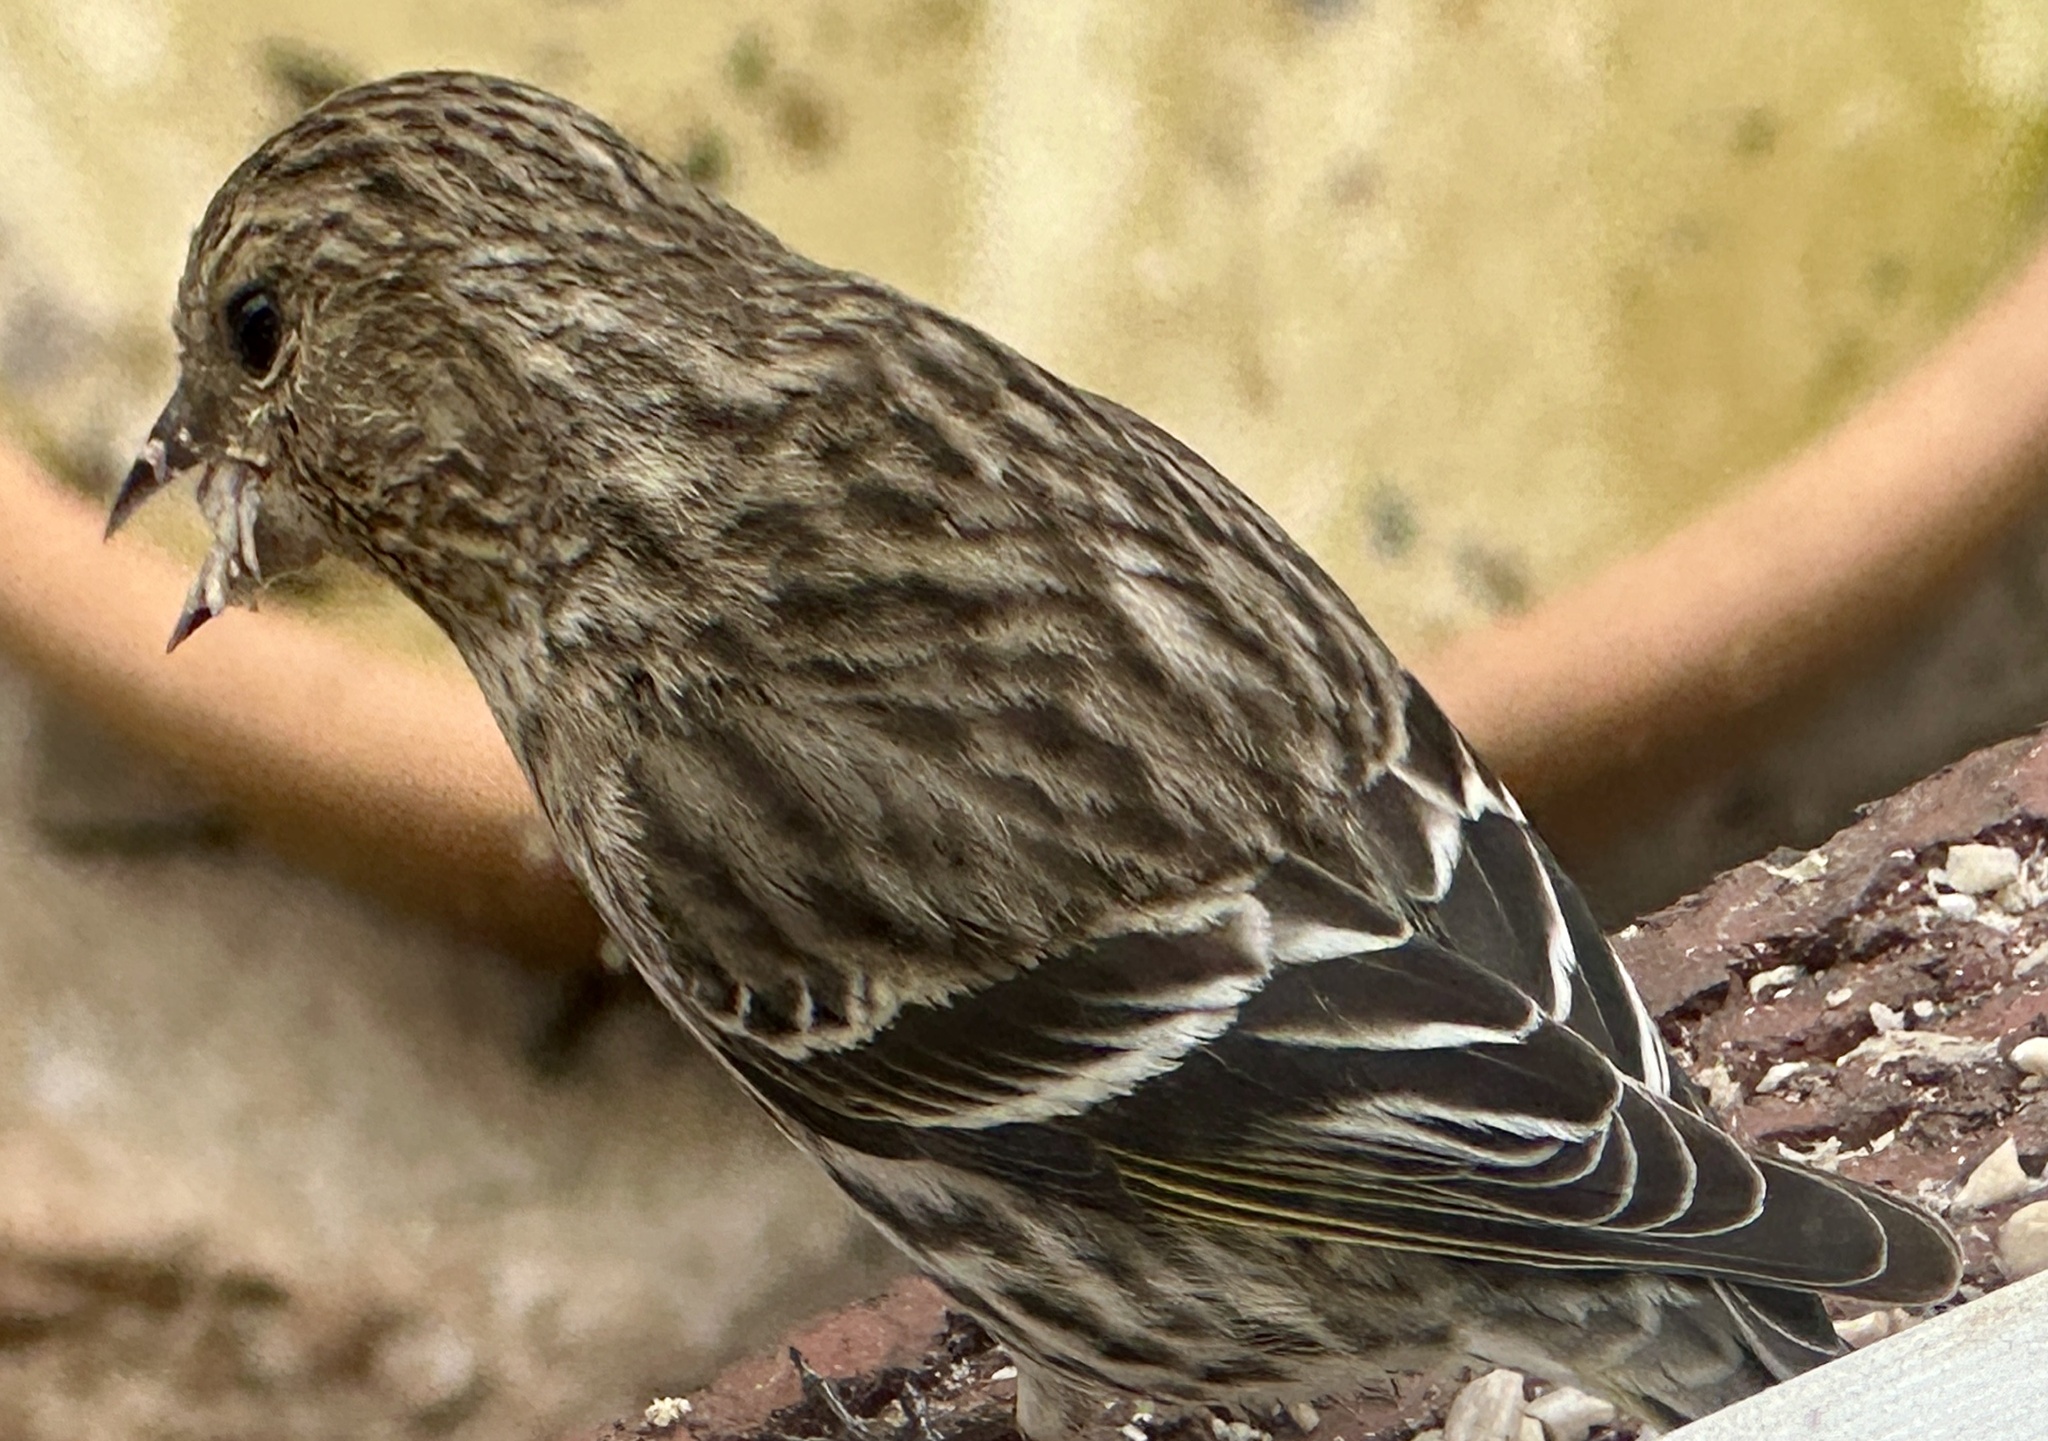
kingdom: Animalia
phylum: Chordata
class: Aves
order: Passeriformes
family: Fringillidae
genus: Spinus
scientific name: Spinus pinus
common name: Pine siskin
